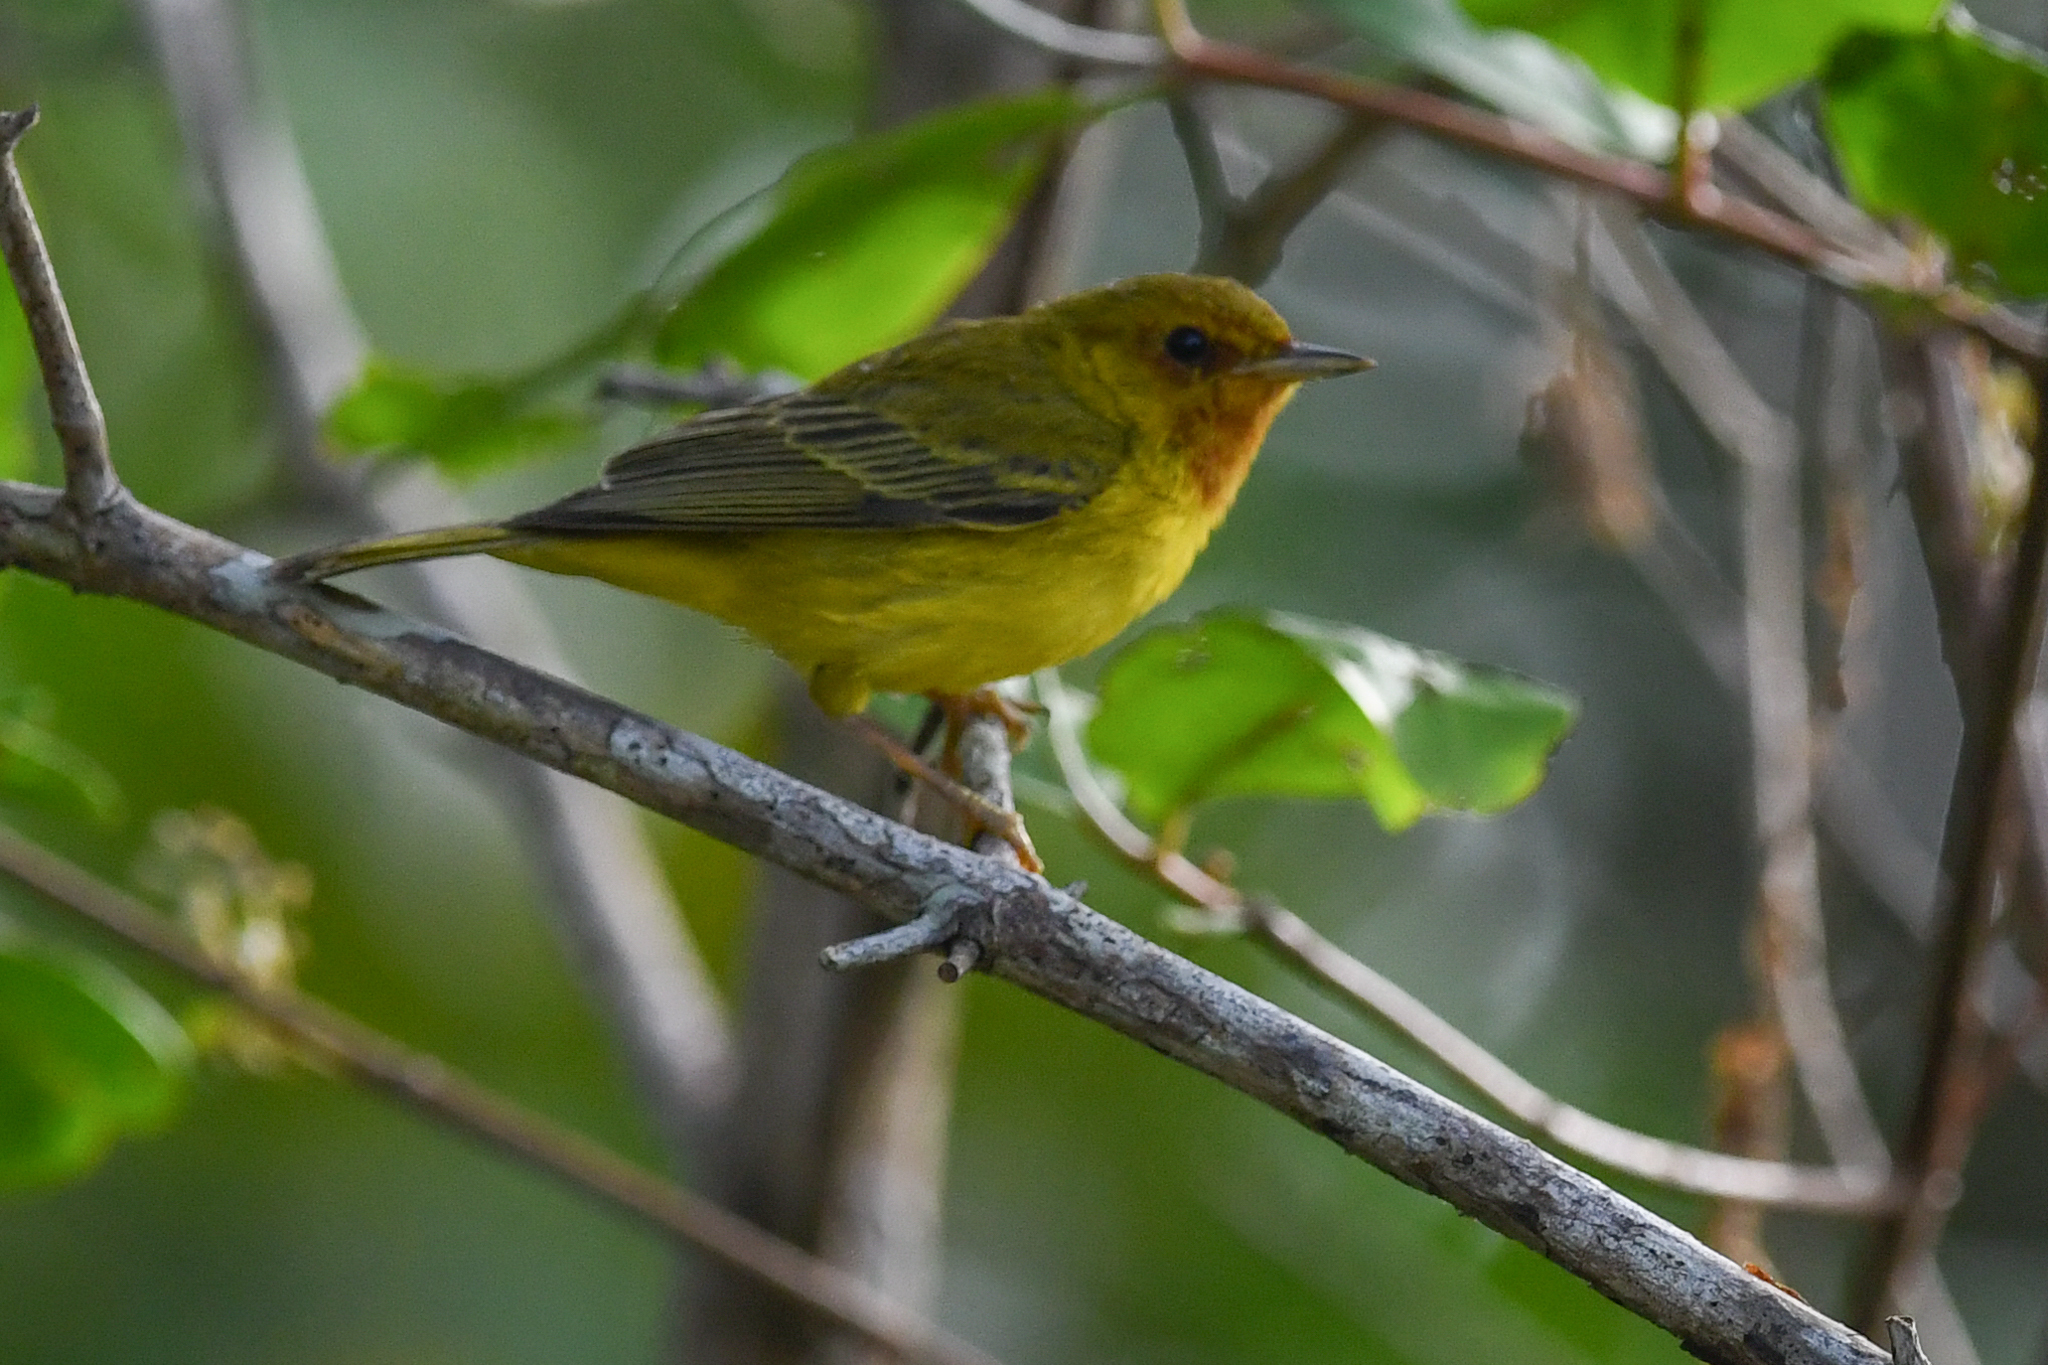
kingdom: Animalia
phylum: Chordata
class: Aves
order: Passeriformes
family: Parulidae
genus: Setophaga
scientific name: Setophaga petechia
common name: Yellow warbler
